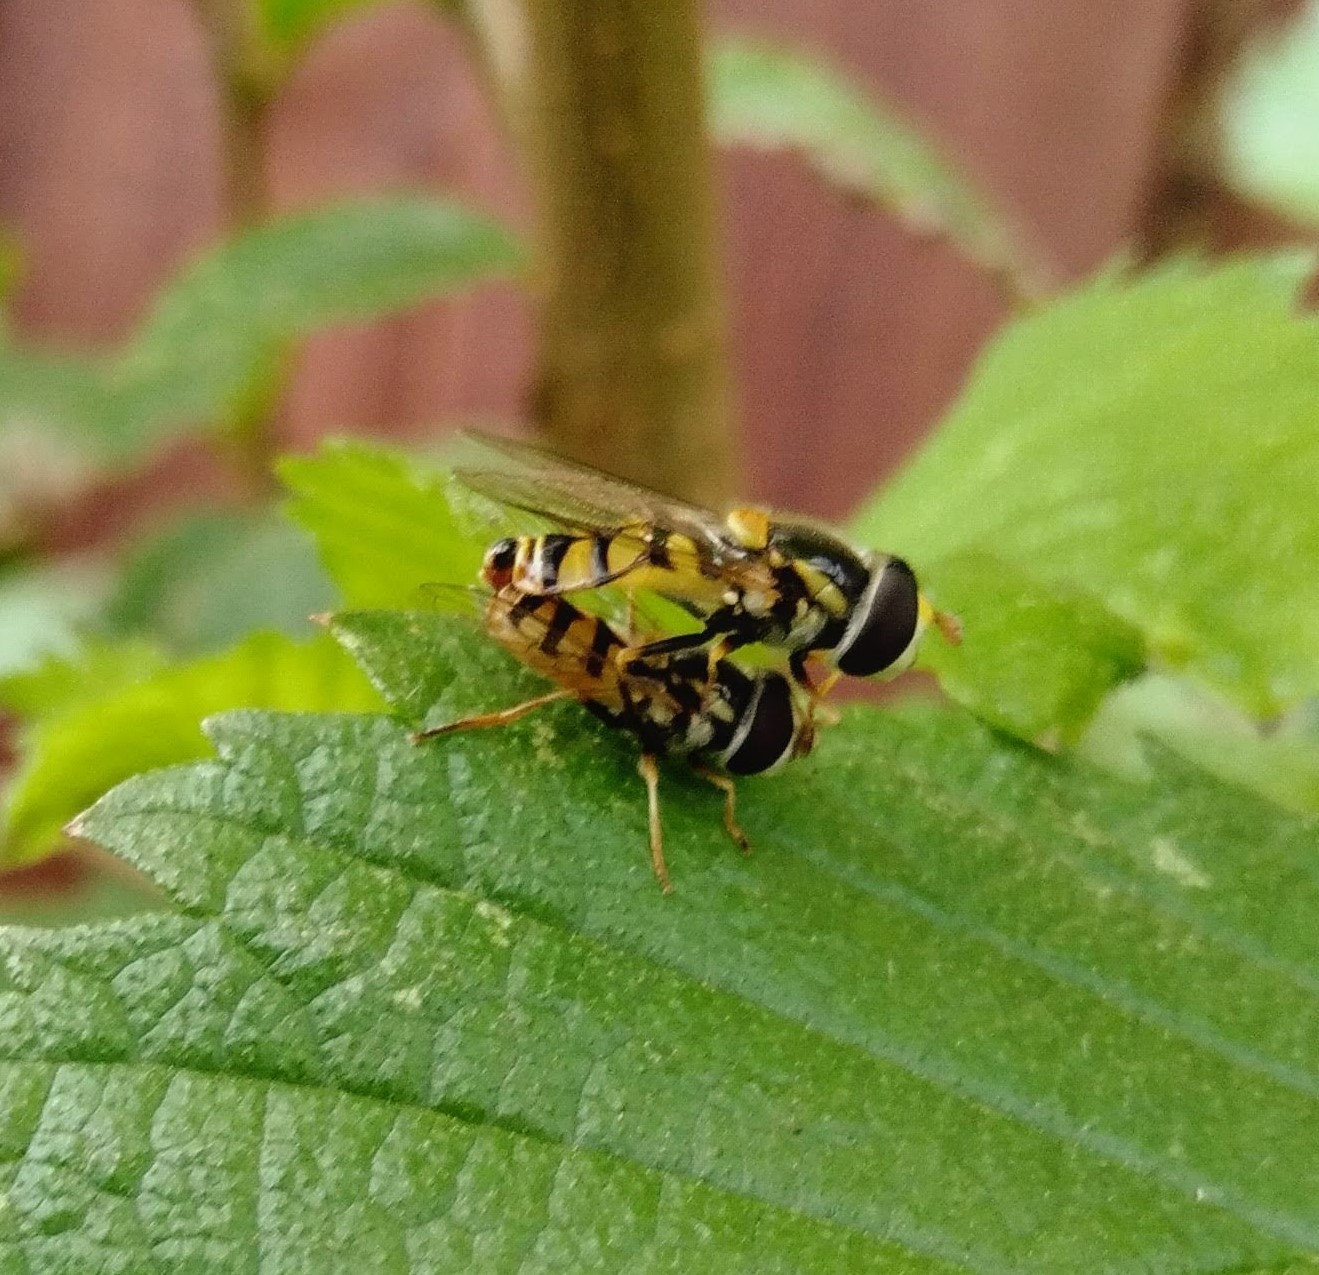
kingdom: Animalia
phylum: Arthropoda
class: Insecta
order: Diptera
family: Syrphidae
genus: Simosyrphus
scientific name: Simosyrphus grandicornis
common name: Hoverfly
